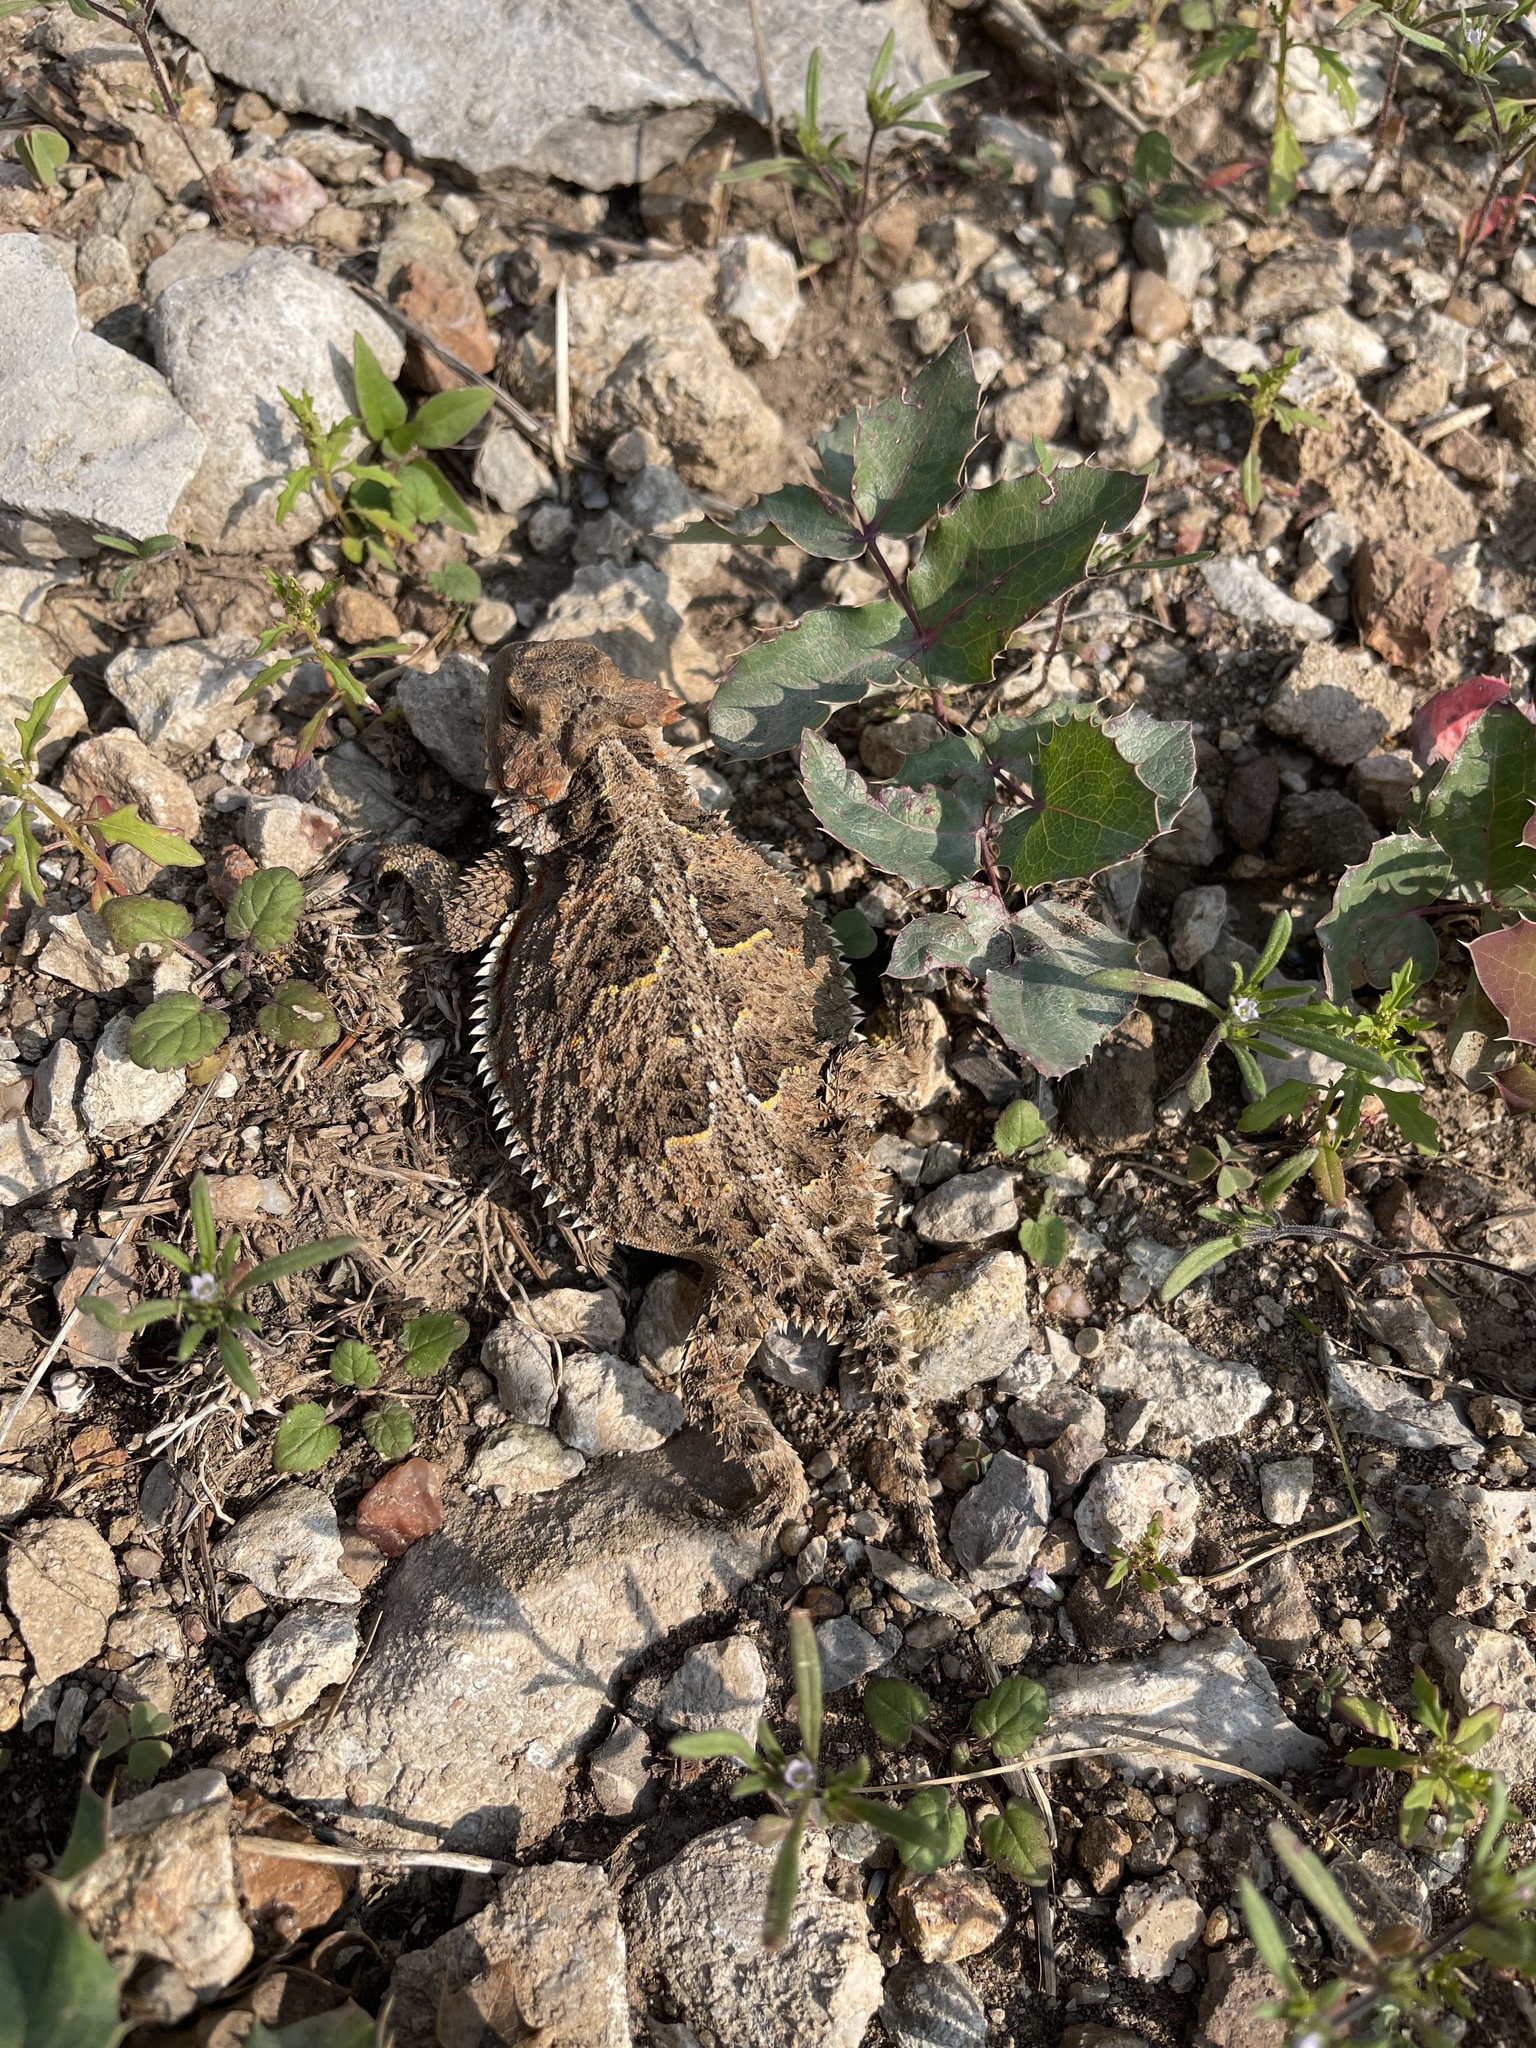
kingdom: Animalia
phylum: Chordata
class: Squamata
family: Phrynosomatidae
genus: Phrynosoma
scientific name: Phrynosoma hernandesi
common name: Greater short-horned lizard
